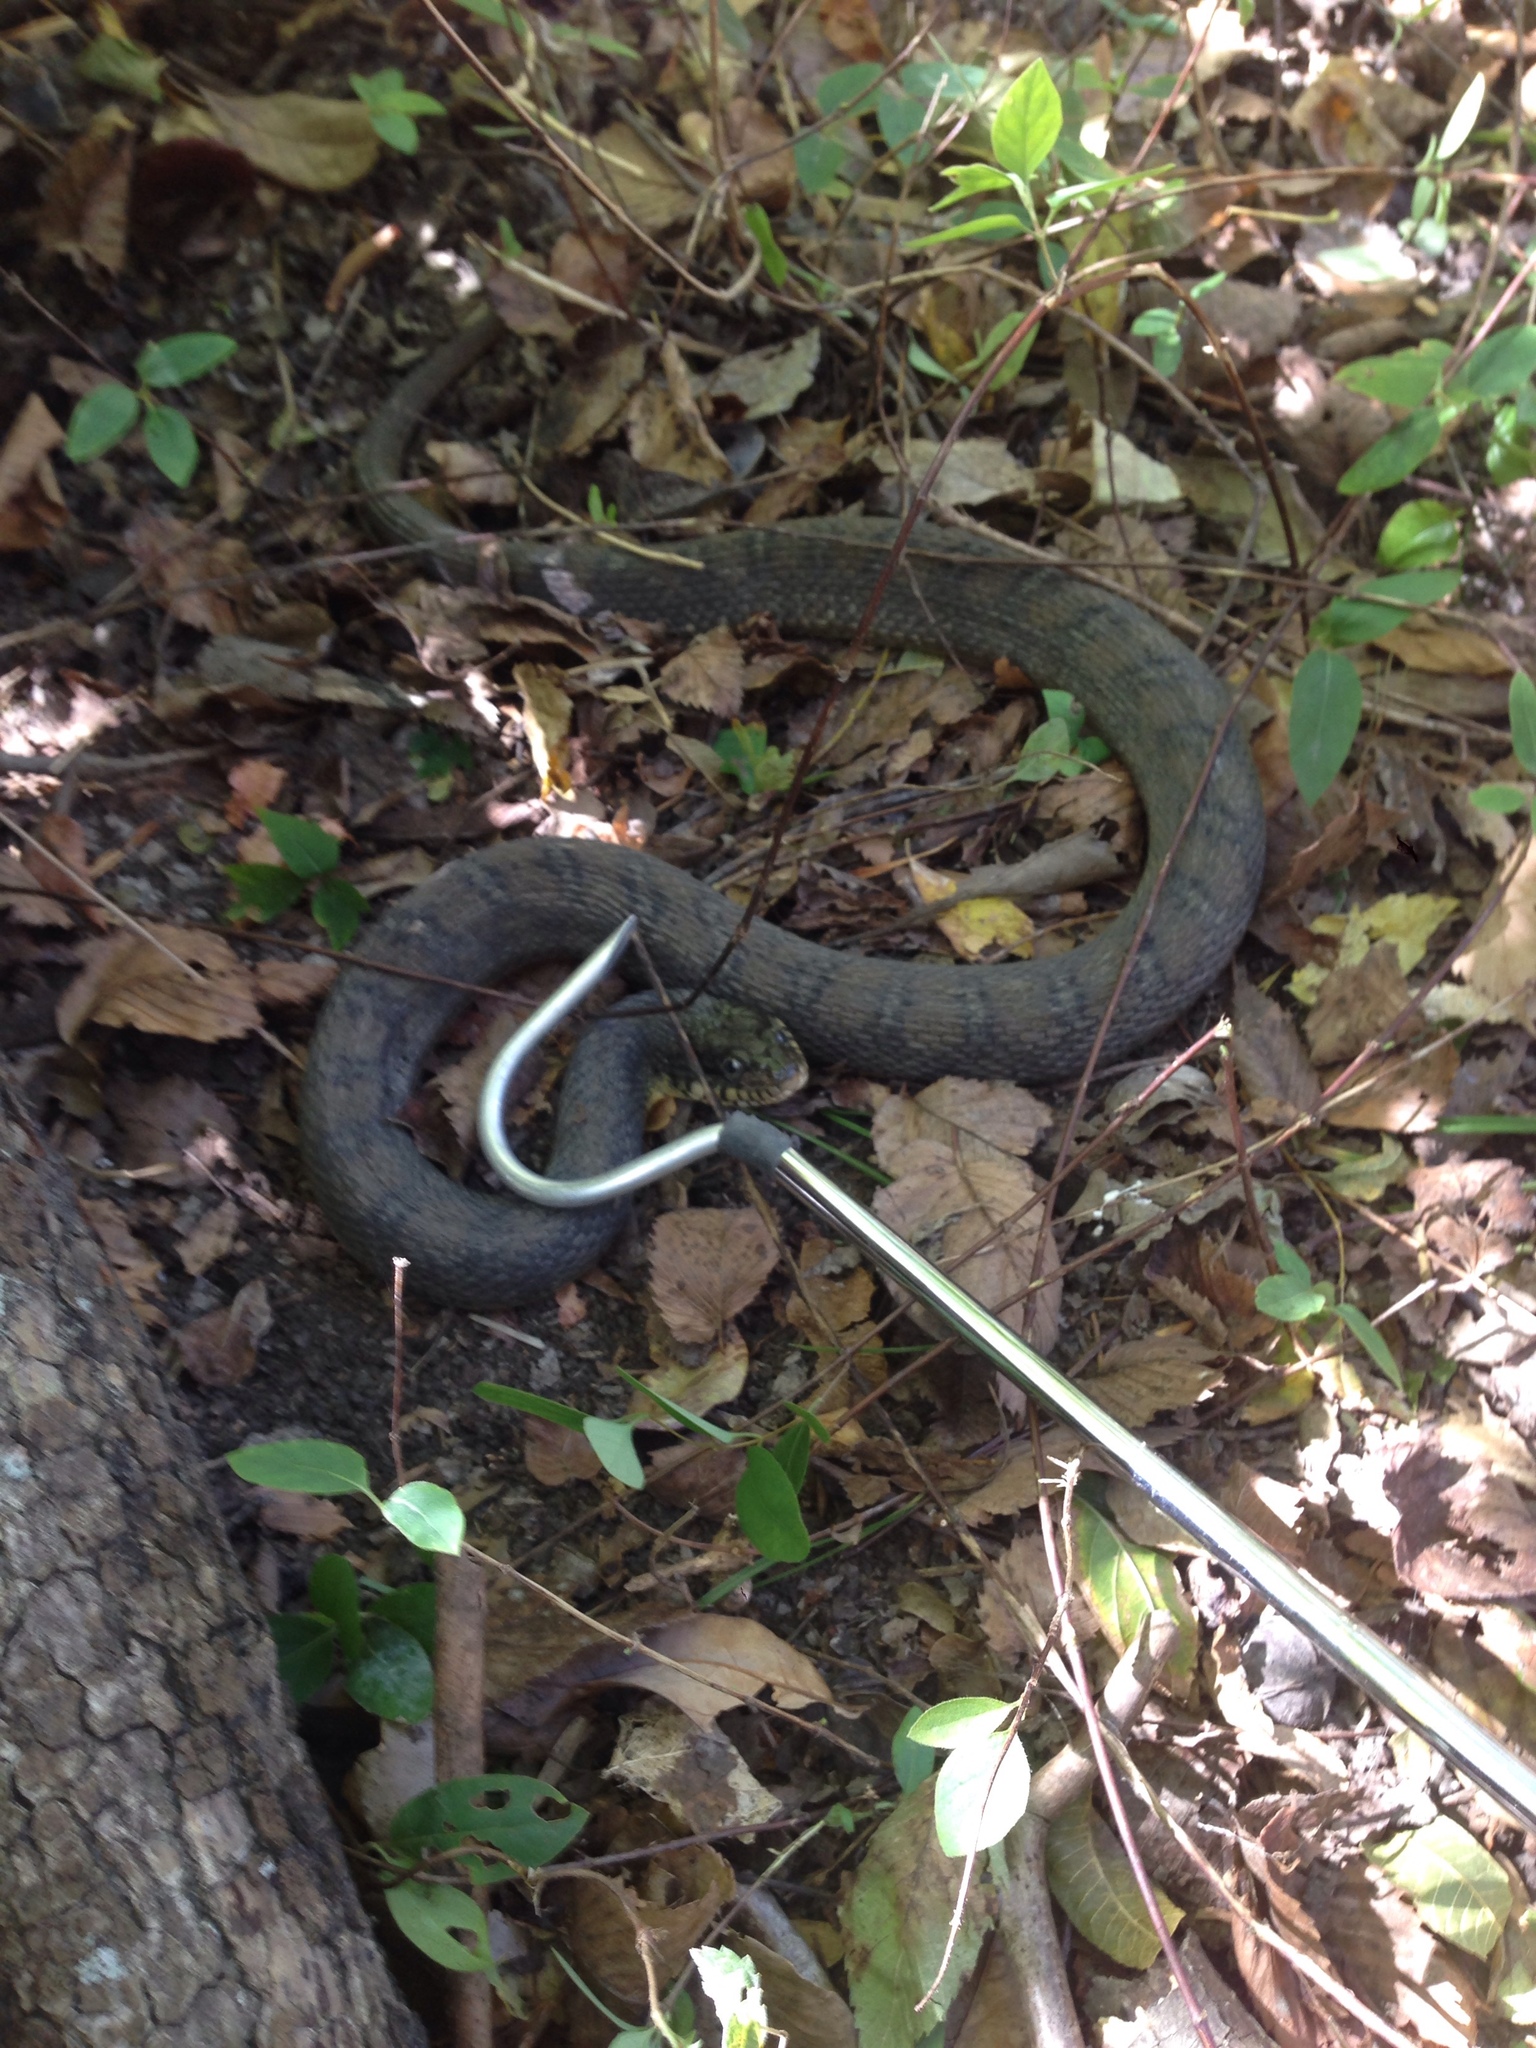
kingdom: Animalia
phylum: Chordata
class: Squamata
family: Colubridae
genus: Nerodia
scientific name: Nerodia erythrogaster
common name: Plainbelly water snake
